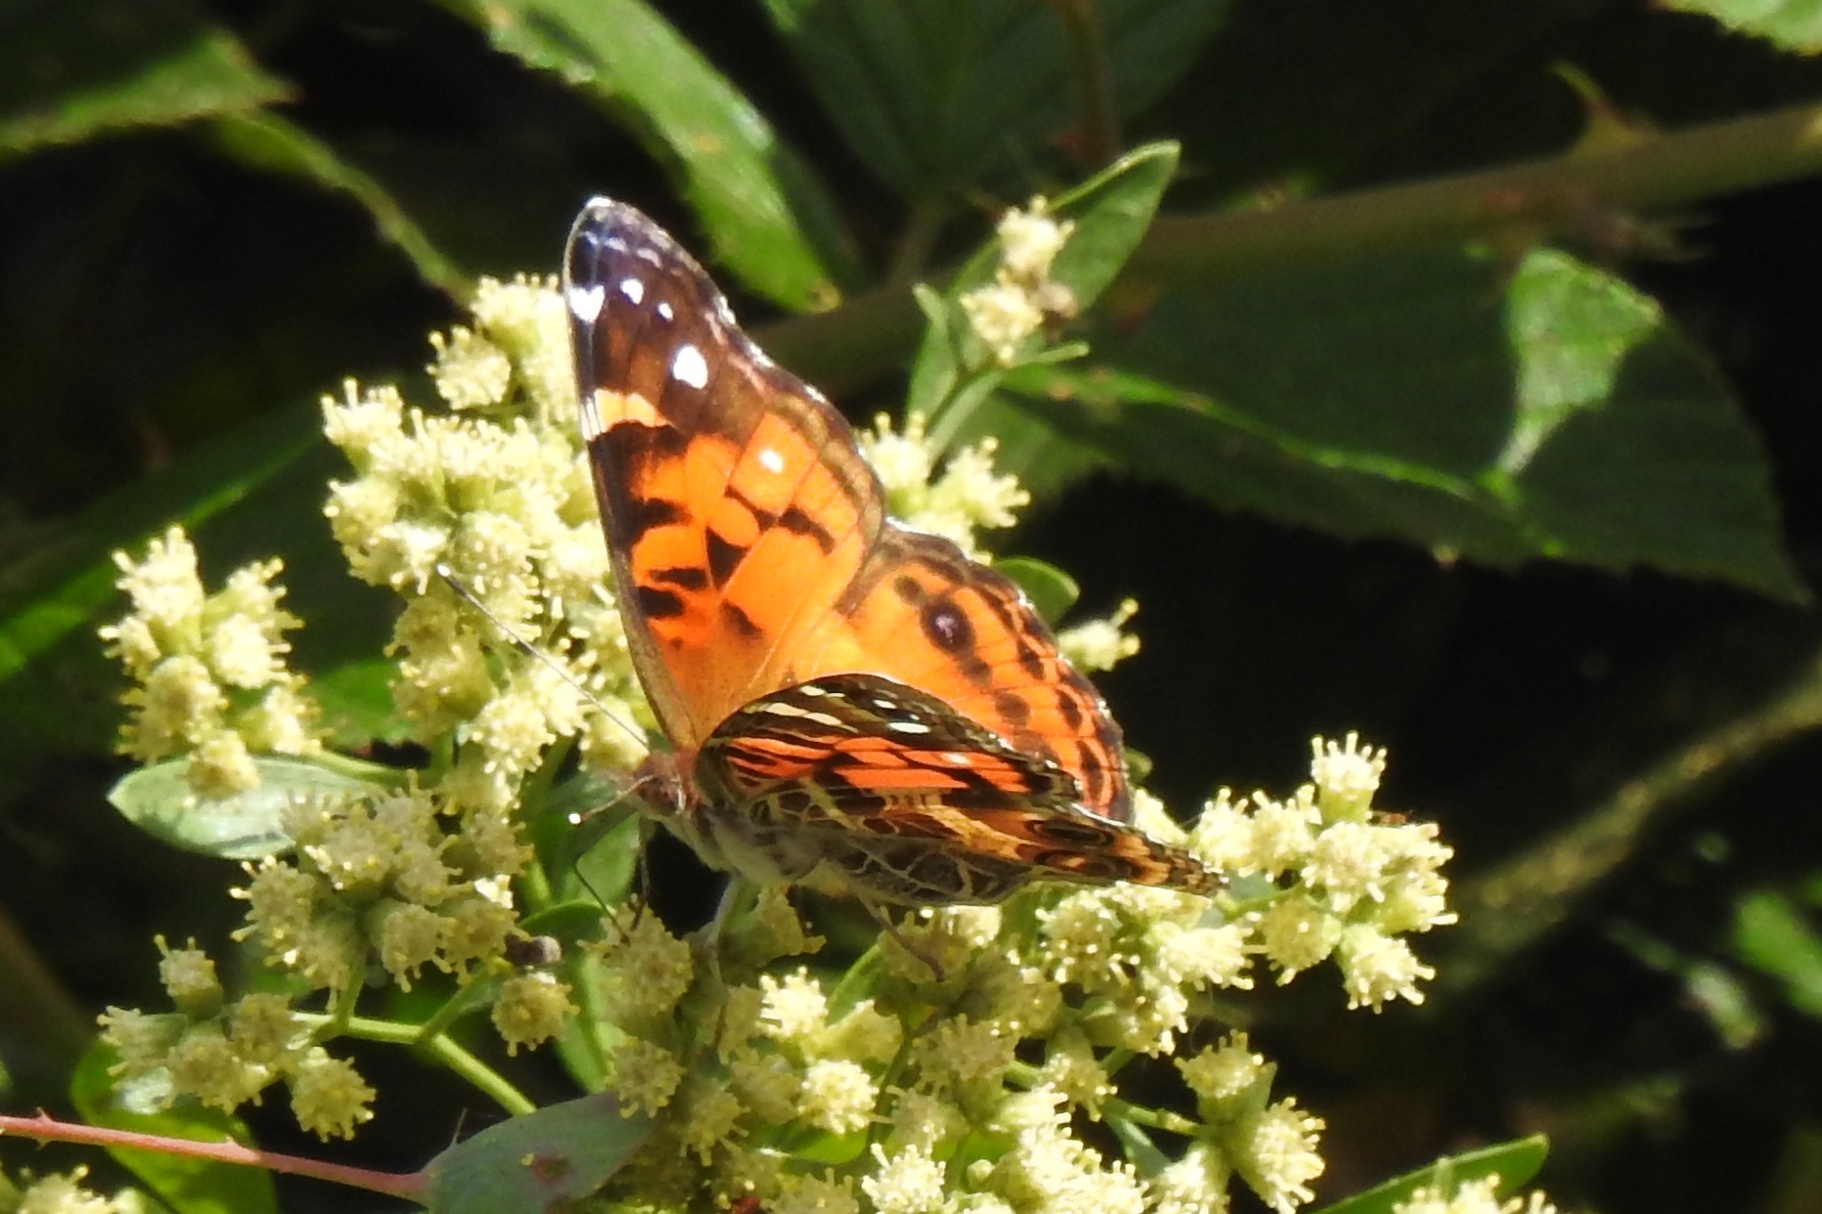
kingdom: Animalia
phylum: Arthropoda
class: Insecta
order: Lepidoptera
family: Nymphalidae
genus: Vanessa
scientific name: Vanessa virginiensis
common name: American lady
